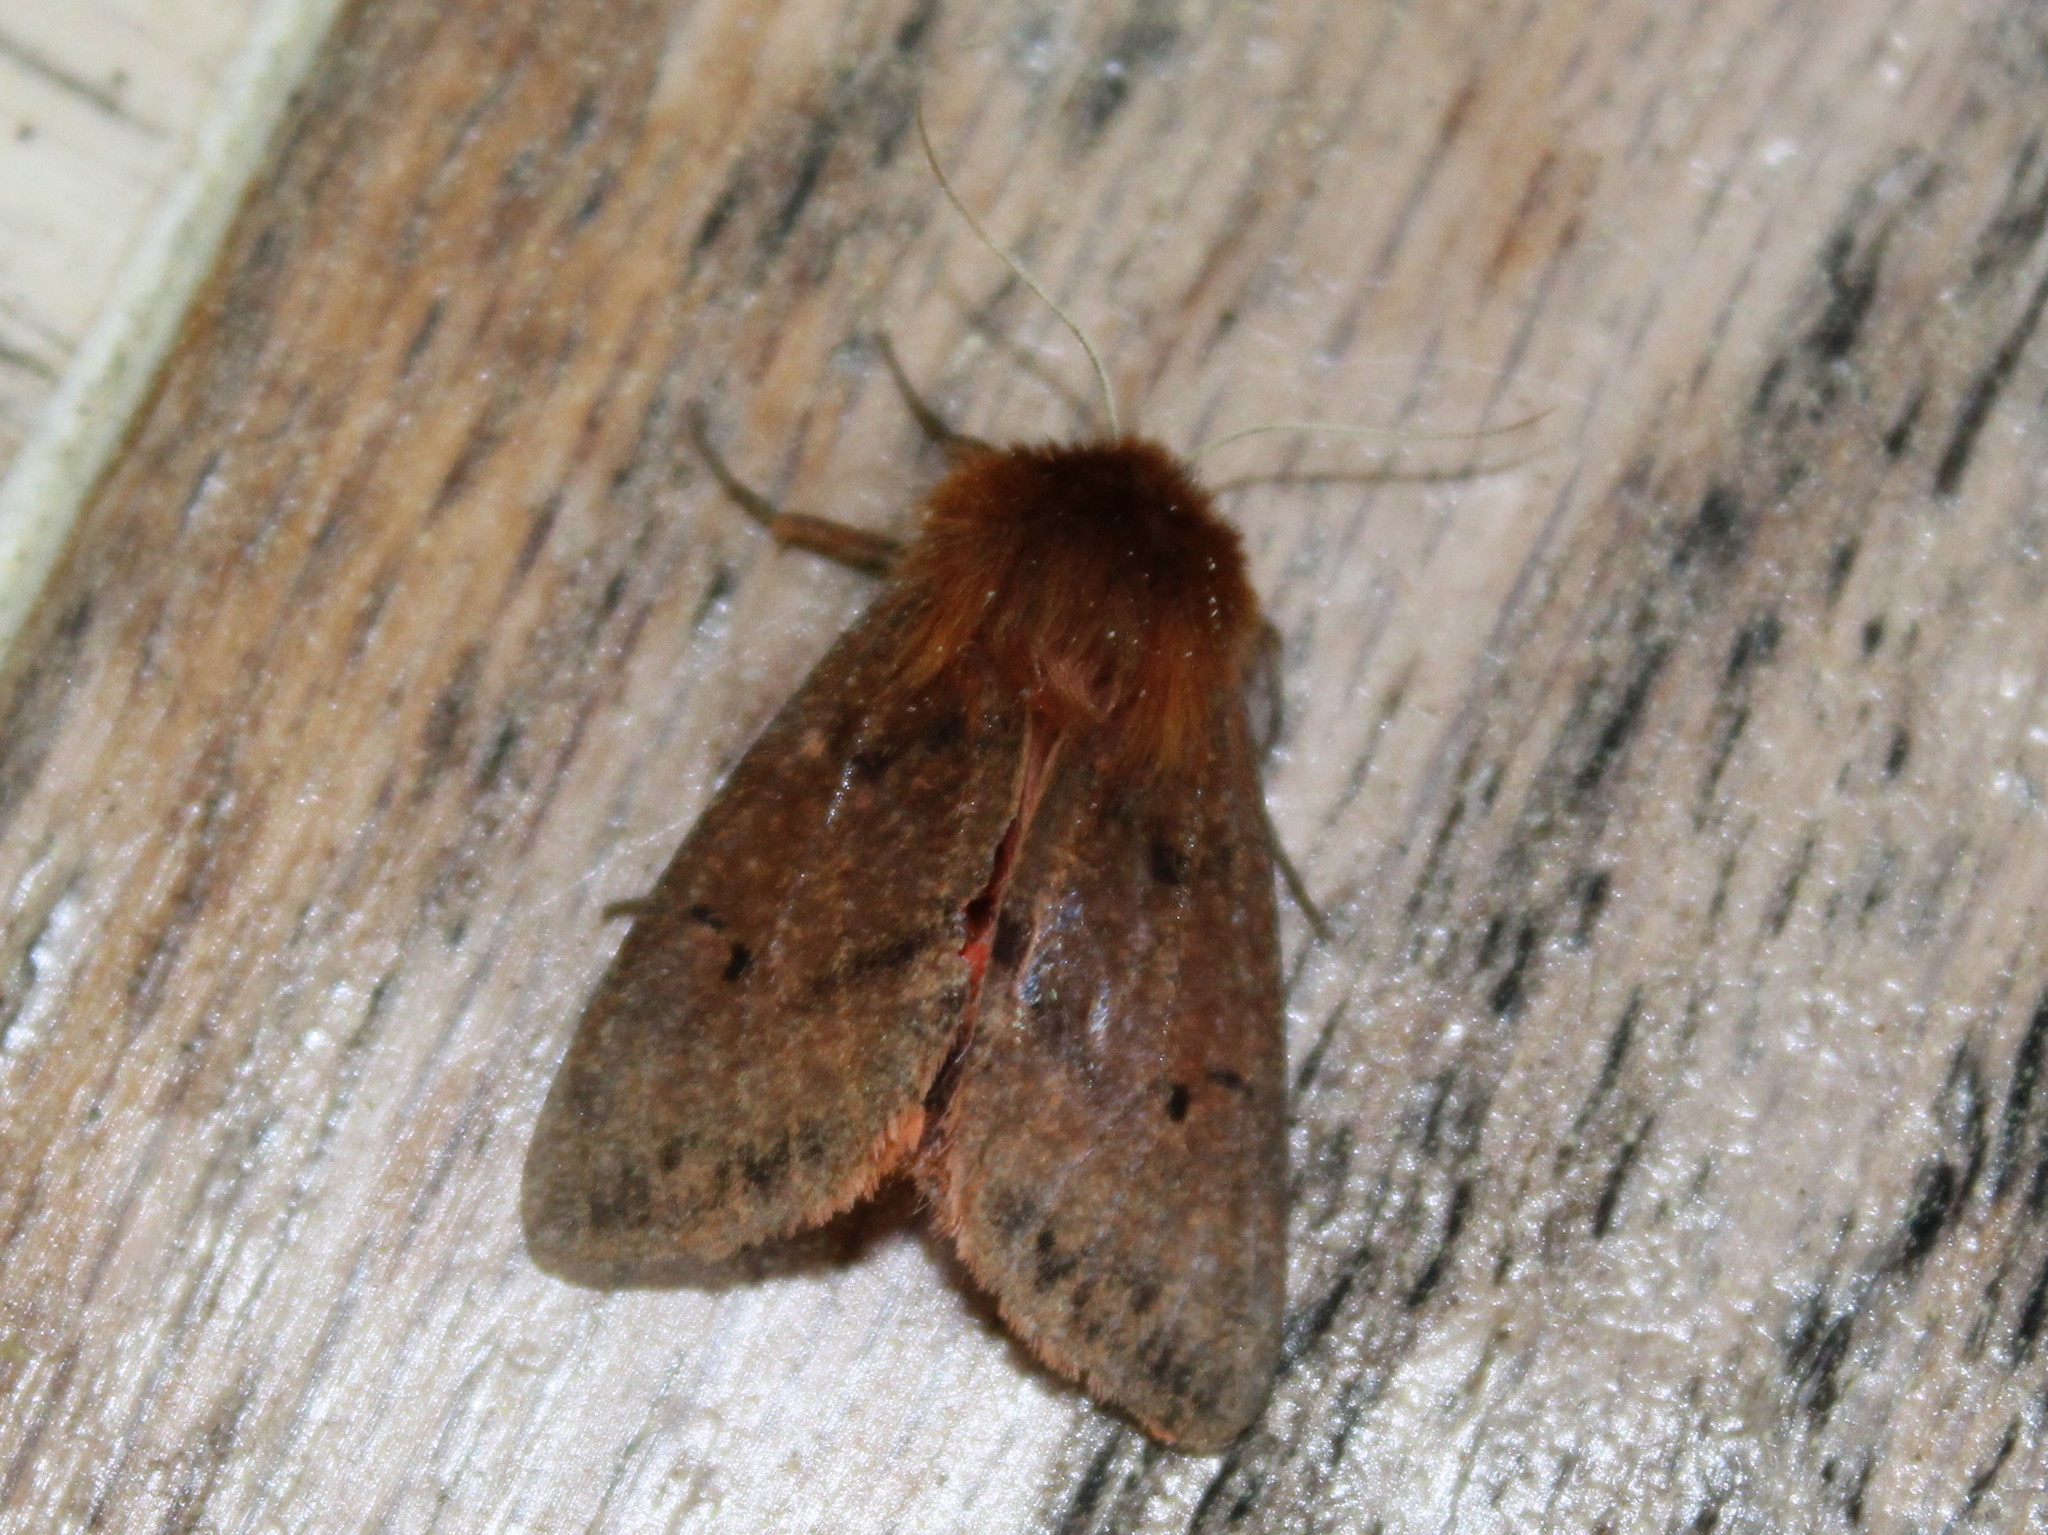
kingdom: Animalia
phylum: Arthropoda
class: Insecta
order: Lepidoptera
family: Erebidae
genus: Phragmatobia
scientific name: Phragmatobia assimilans
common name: Large ruby tiger moth
